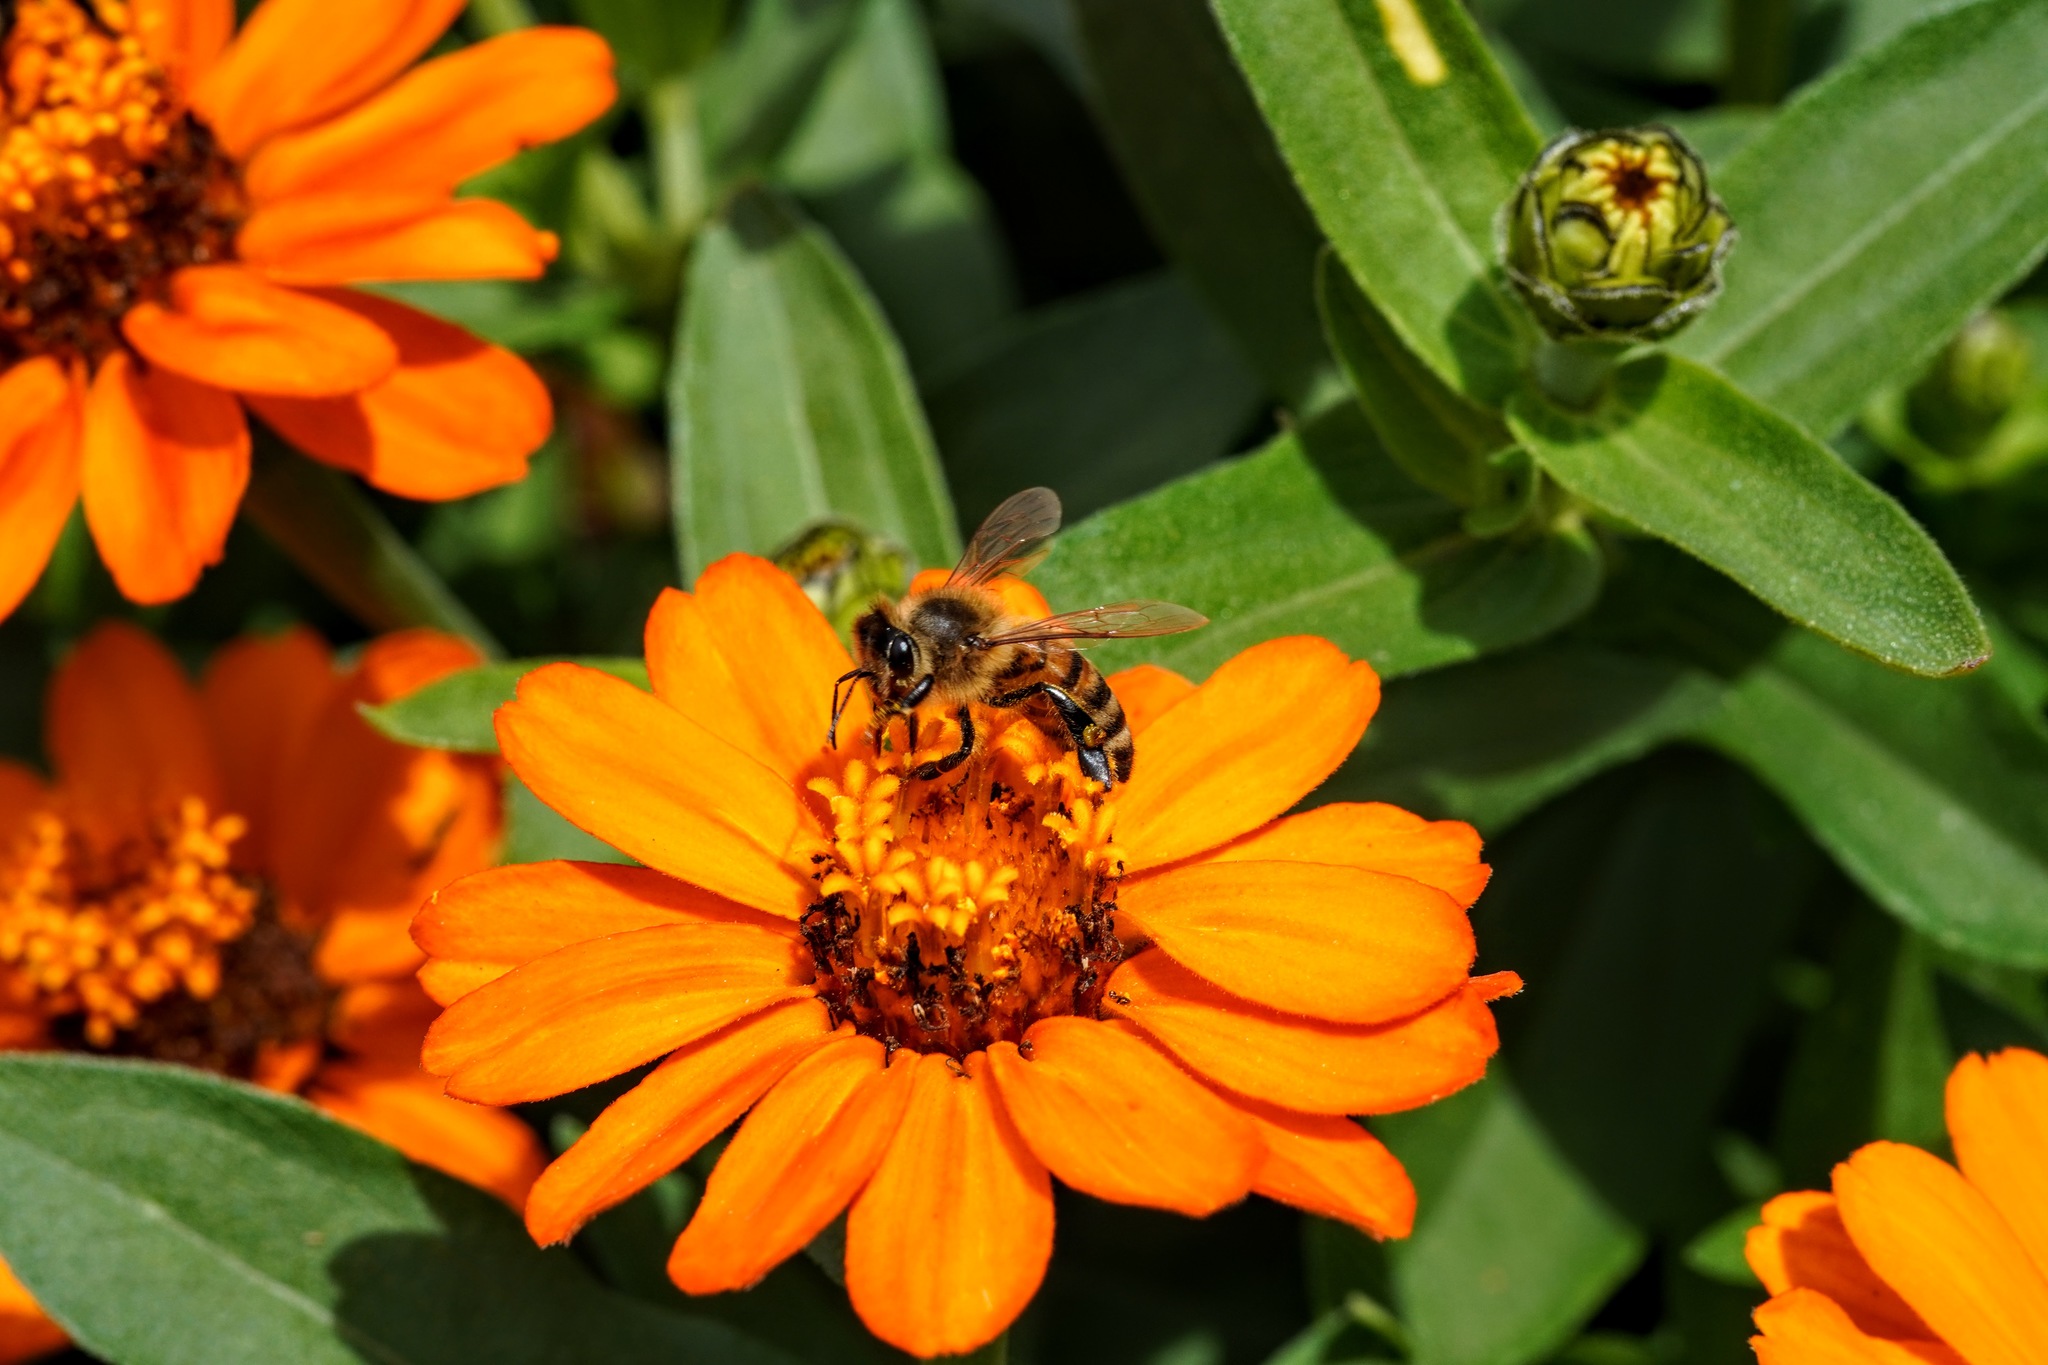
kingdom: Animalia
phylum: Arthropoda
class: Insecta
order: Hymenoptera
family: Apidae
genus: Apis
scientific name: Apis mellifera
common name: Honey bee
